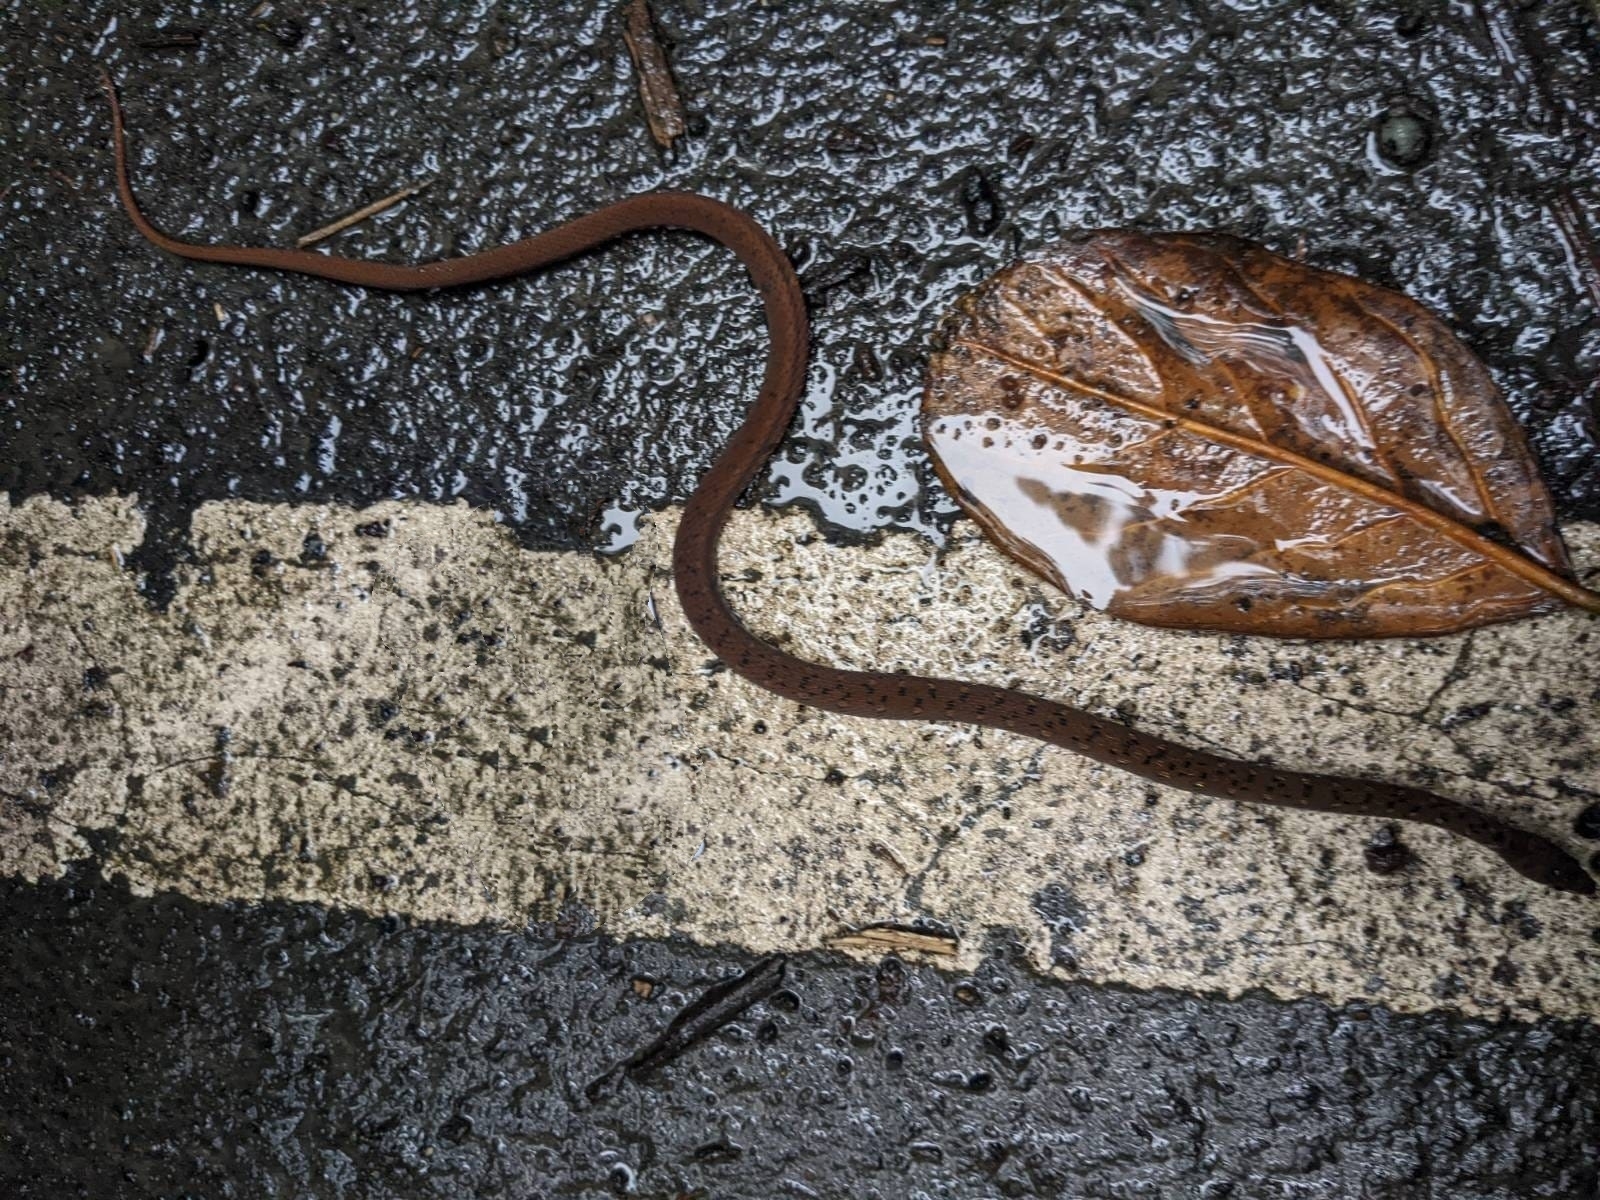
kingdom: Animalia
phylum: Chordata
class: Squamata
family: Colubridae
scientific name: Colubridae
